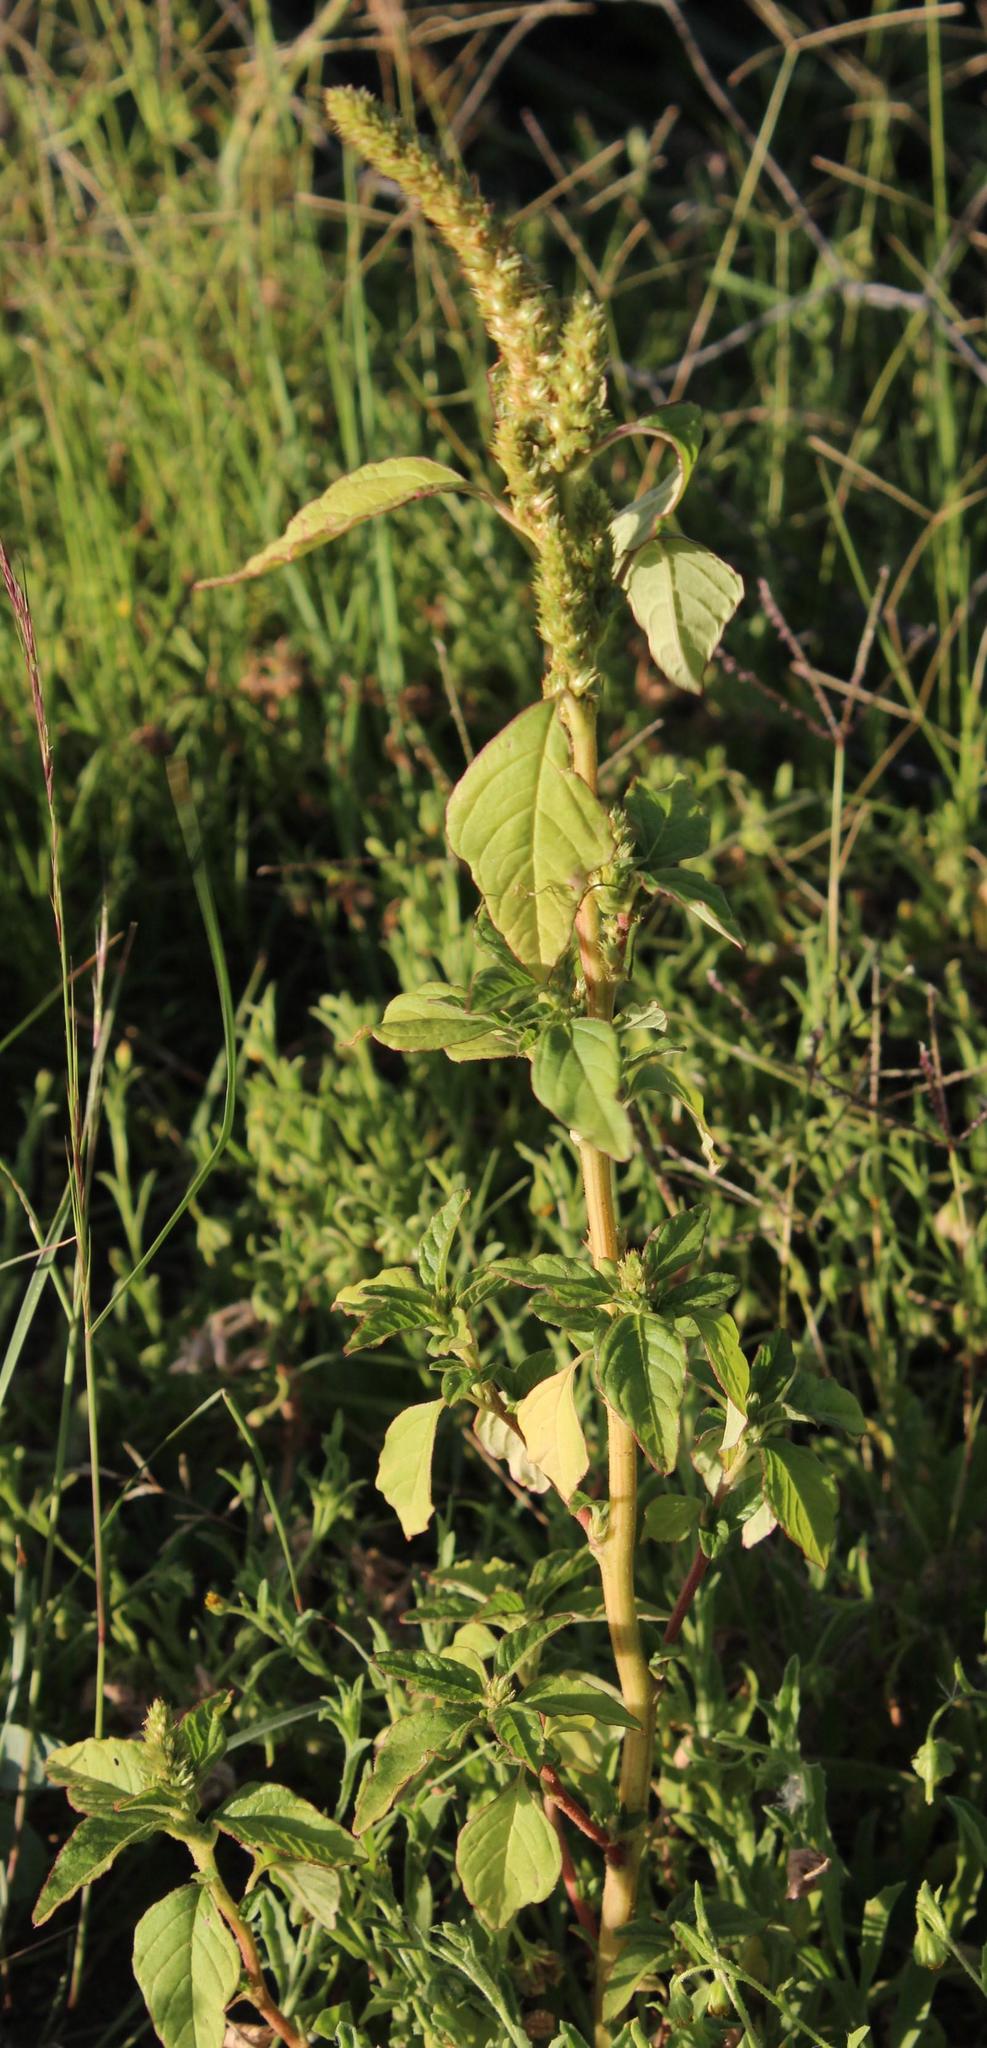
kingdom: Plantae
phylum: Tracheophyta
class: Magnoliopsida
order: Caryophyllales
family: Amaranthaceae
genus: Amaranthus
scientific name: Amaranthus hybridus
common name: Green amaranth
